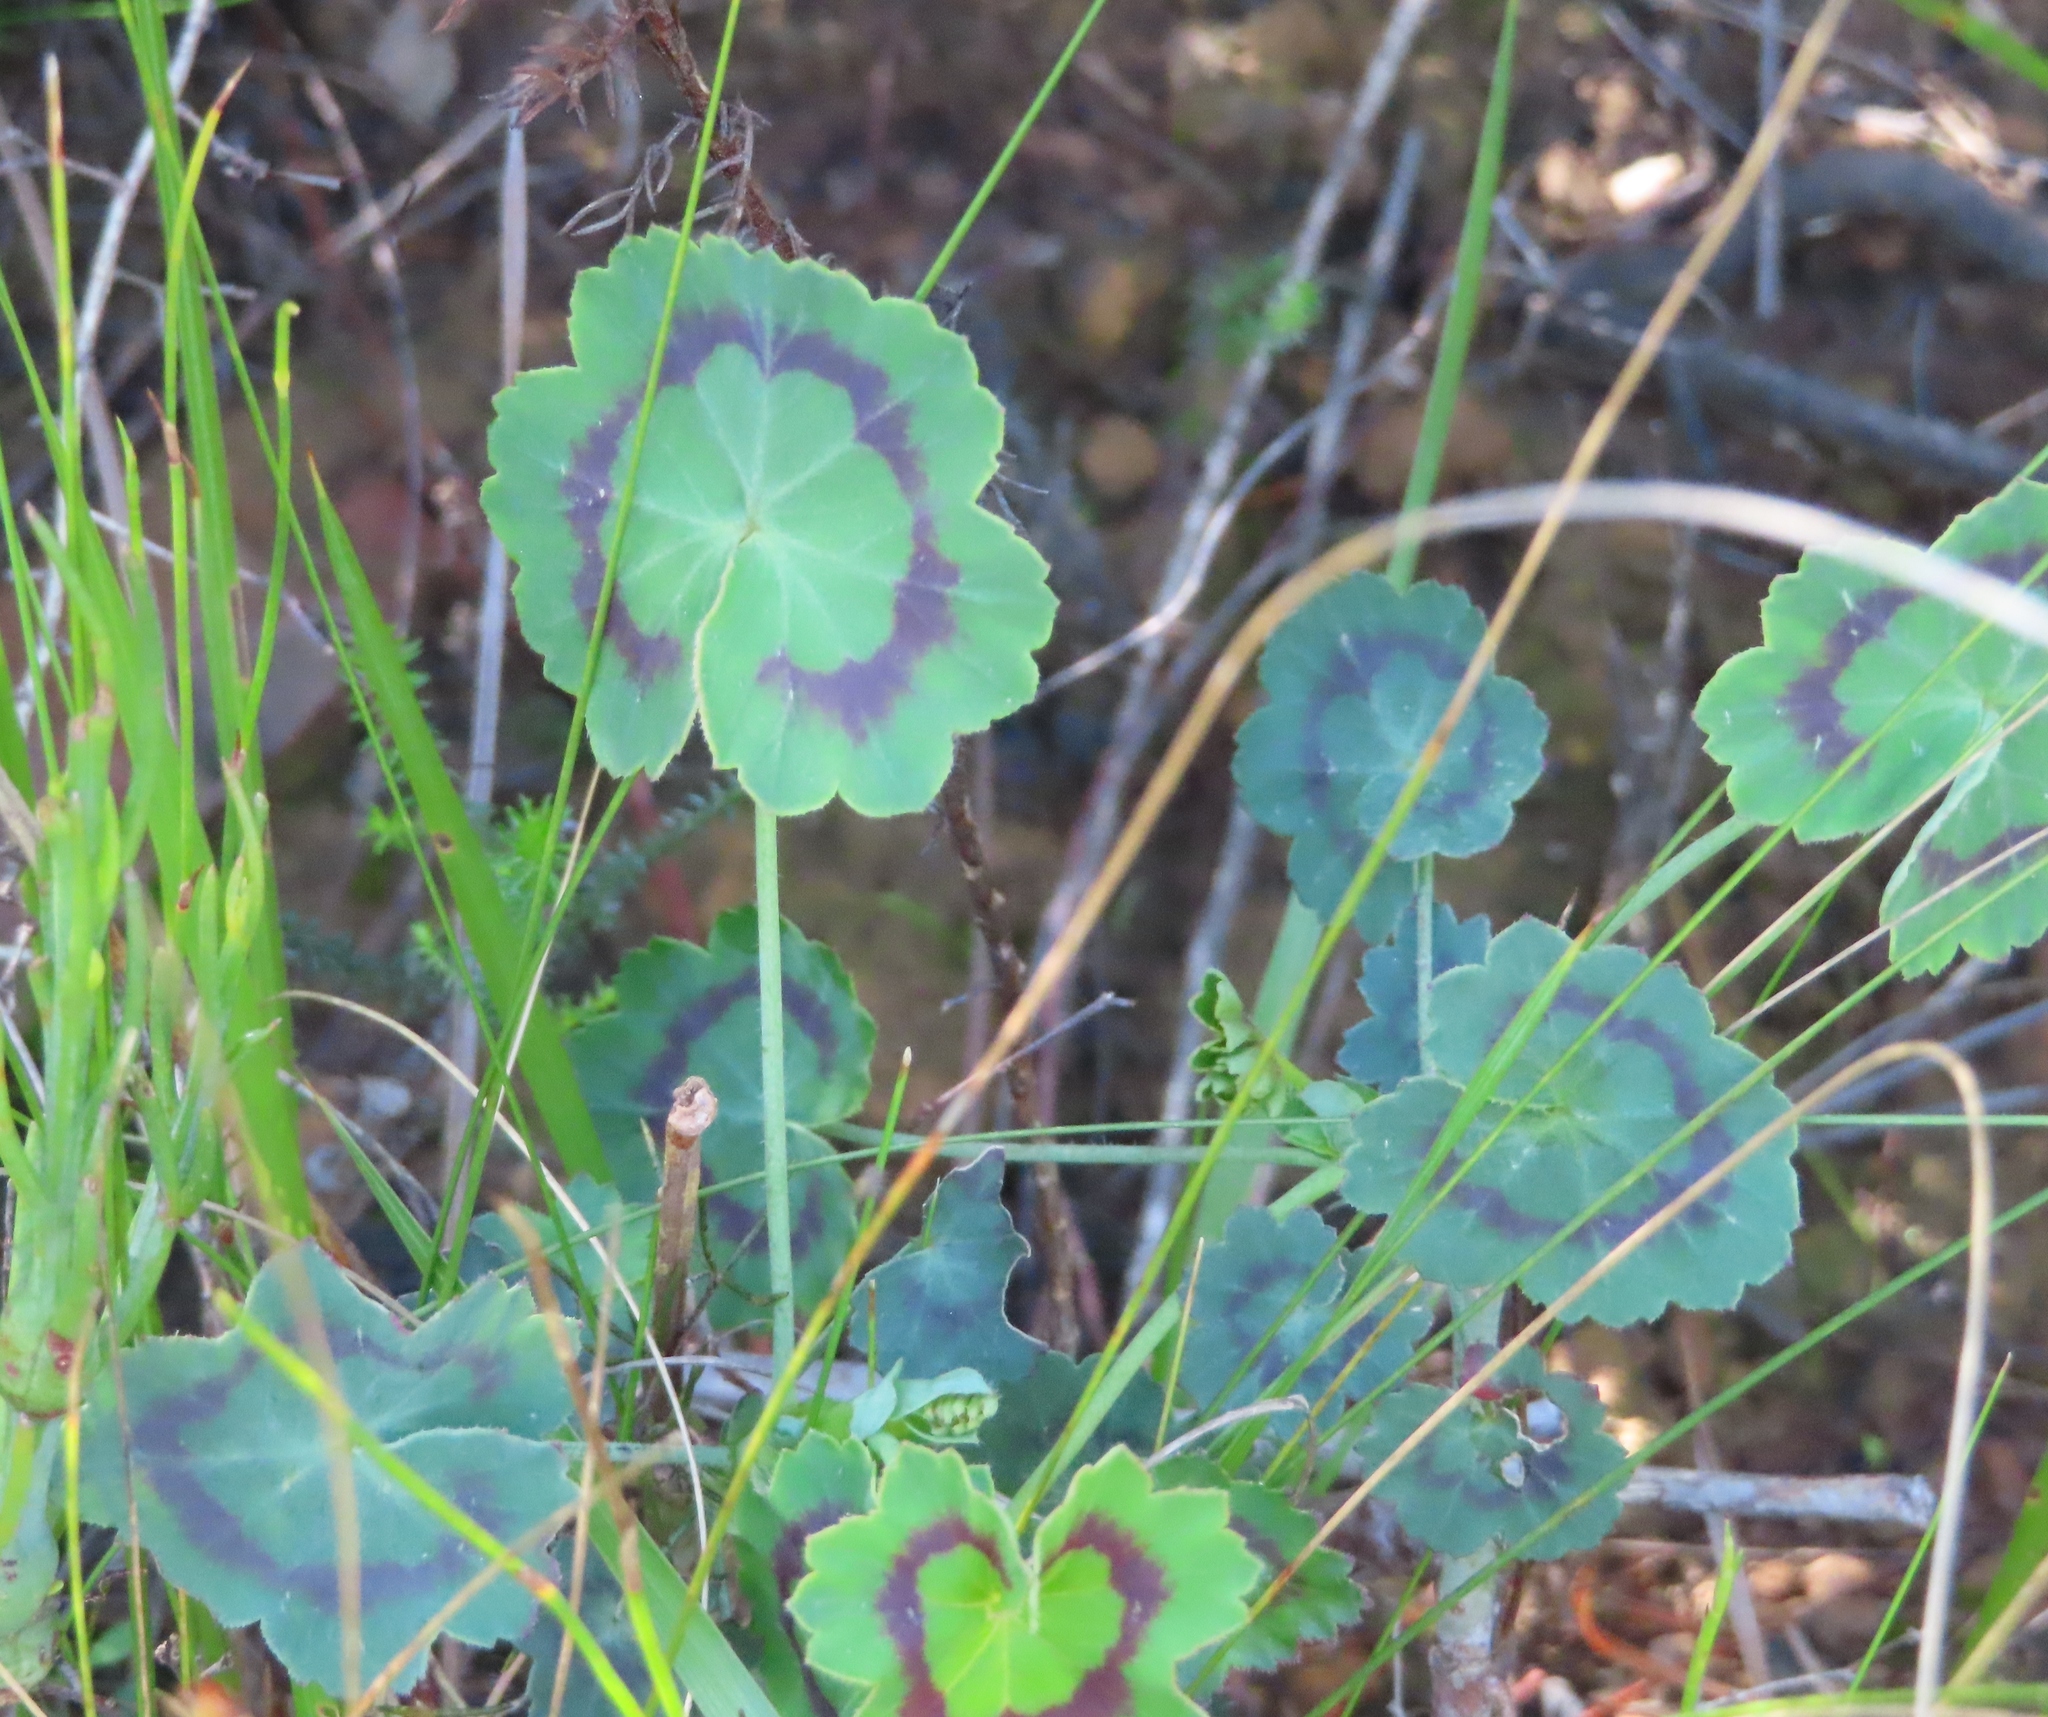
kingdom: Plantae
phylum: Tracheophyta
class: Magnoliopsida
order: Geraniales
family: Geraniaceae
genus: Pelargonium
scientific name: Pelargonium tabulare
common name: Table mountain pelargonium
